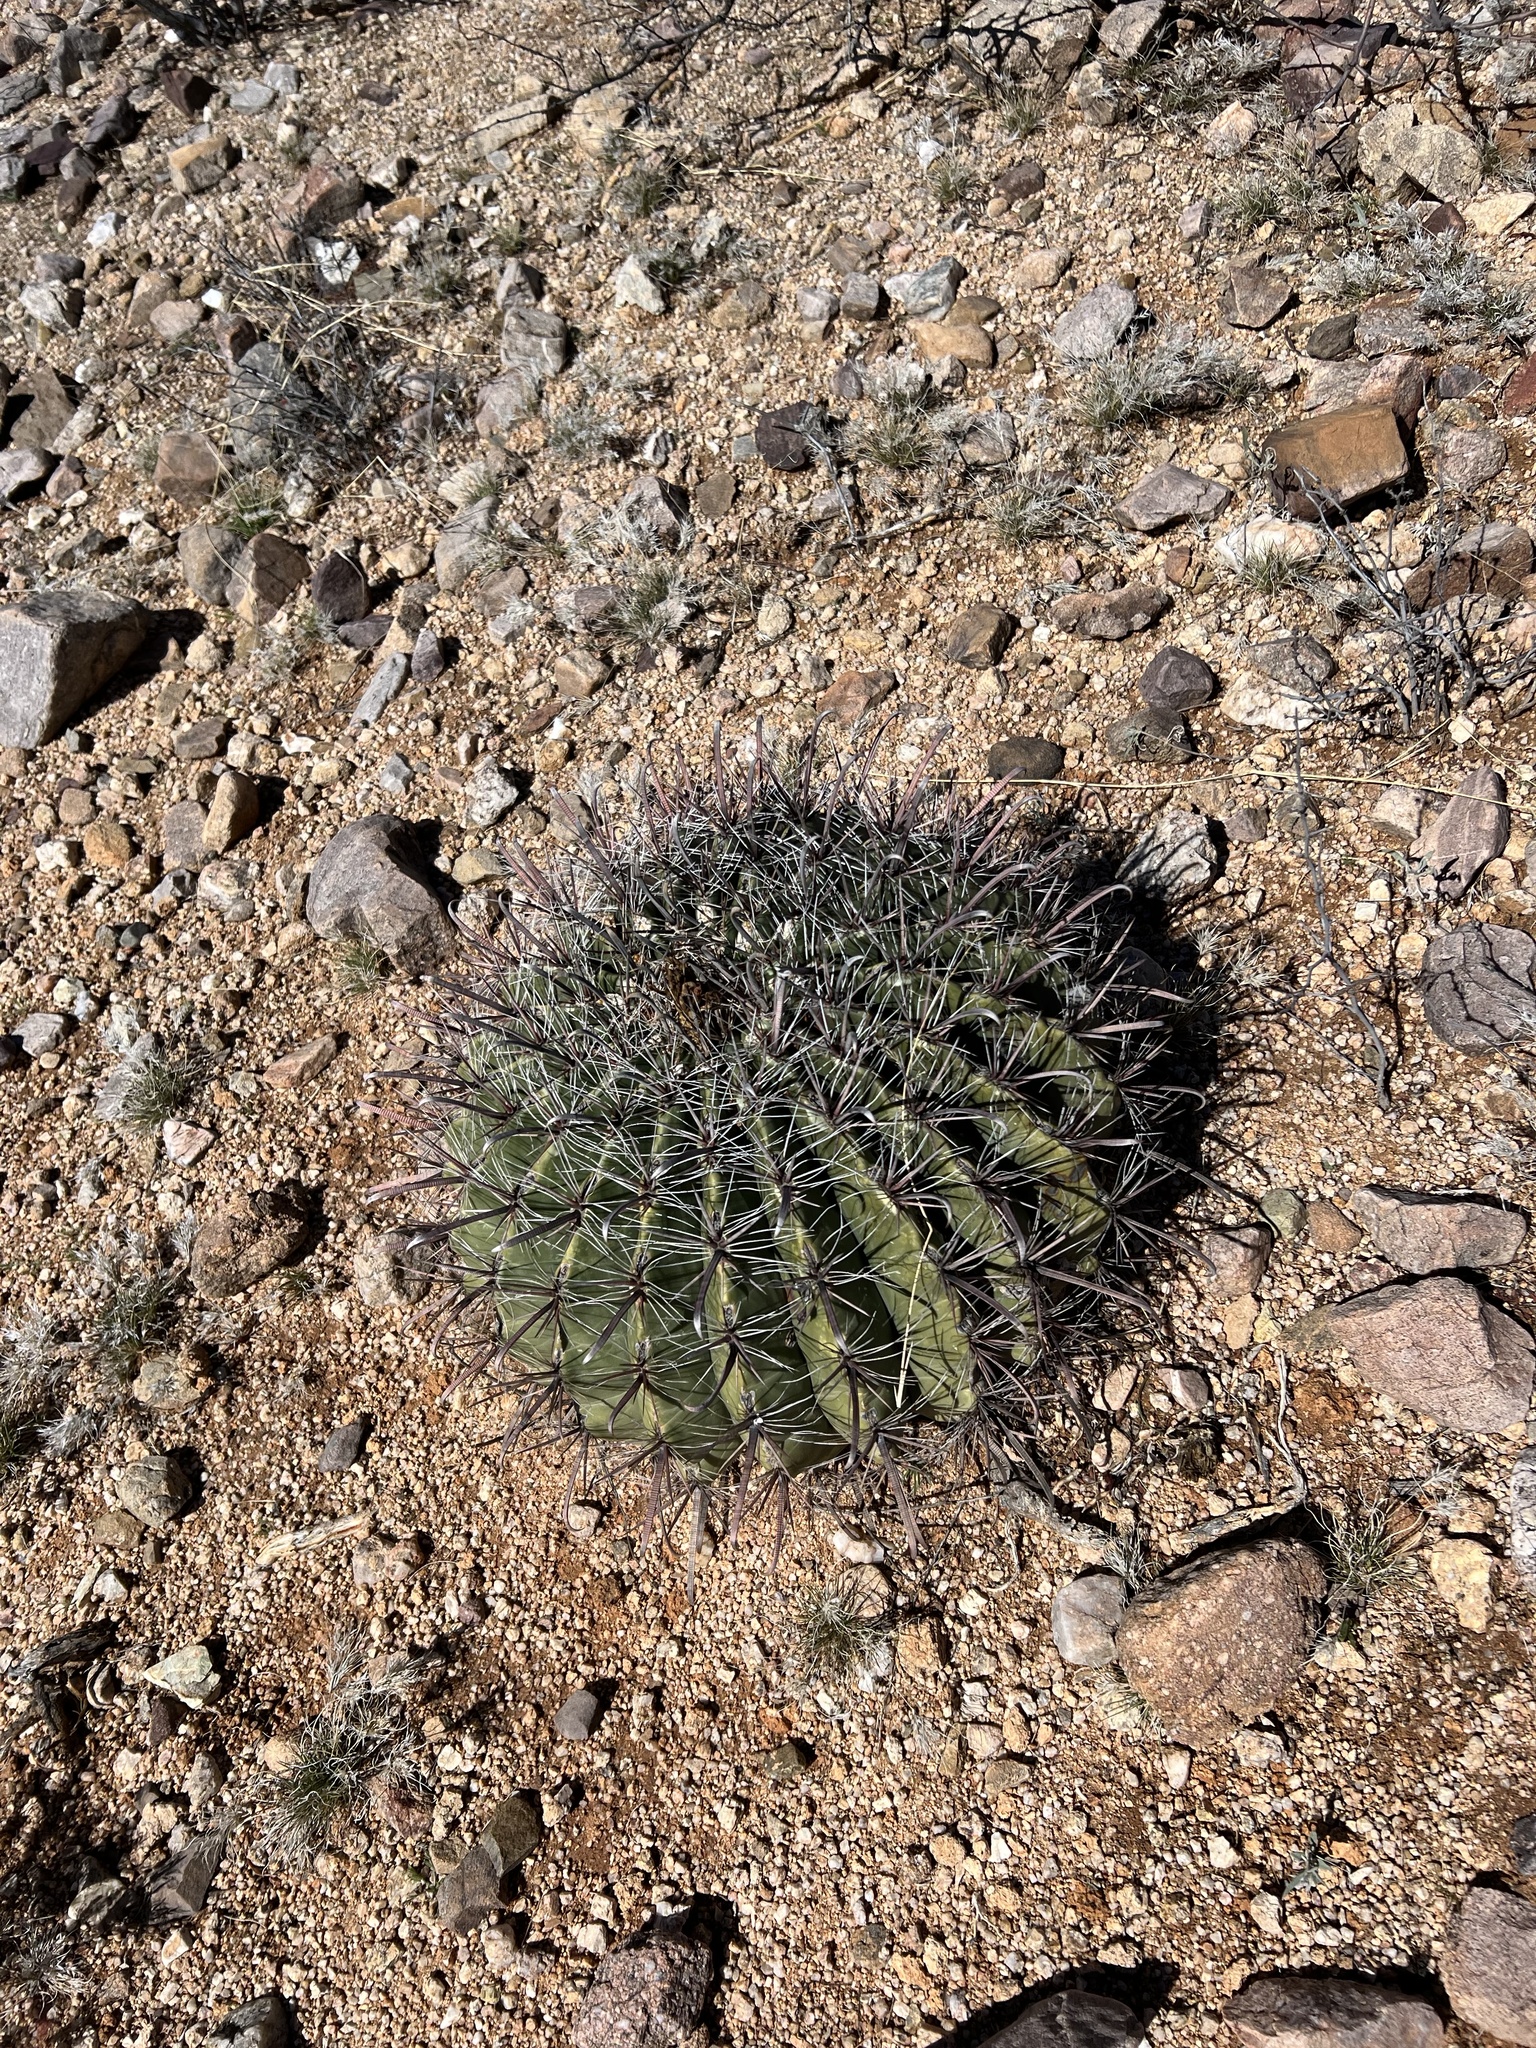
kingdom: Plantae
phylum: Tracheophyta
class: Magnoliopsida
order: Caryophyllales
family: Cactaceae
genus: Ferocactus
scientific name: Ferocactus wislizeni
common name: Candy barrel cactus
